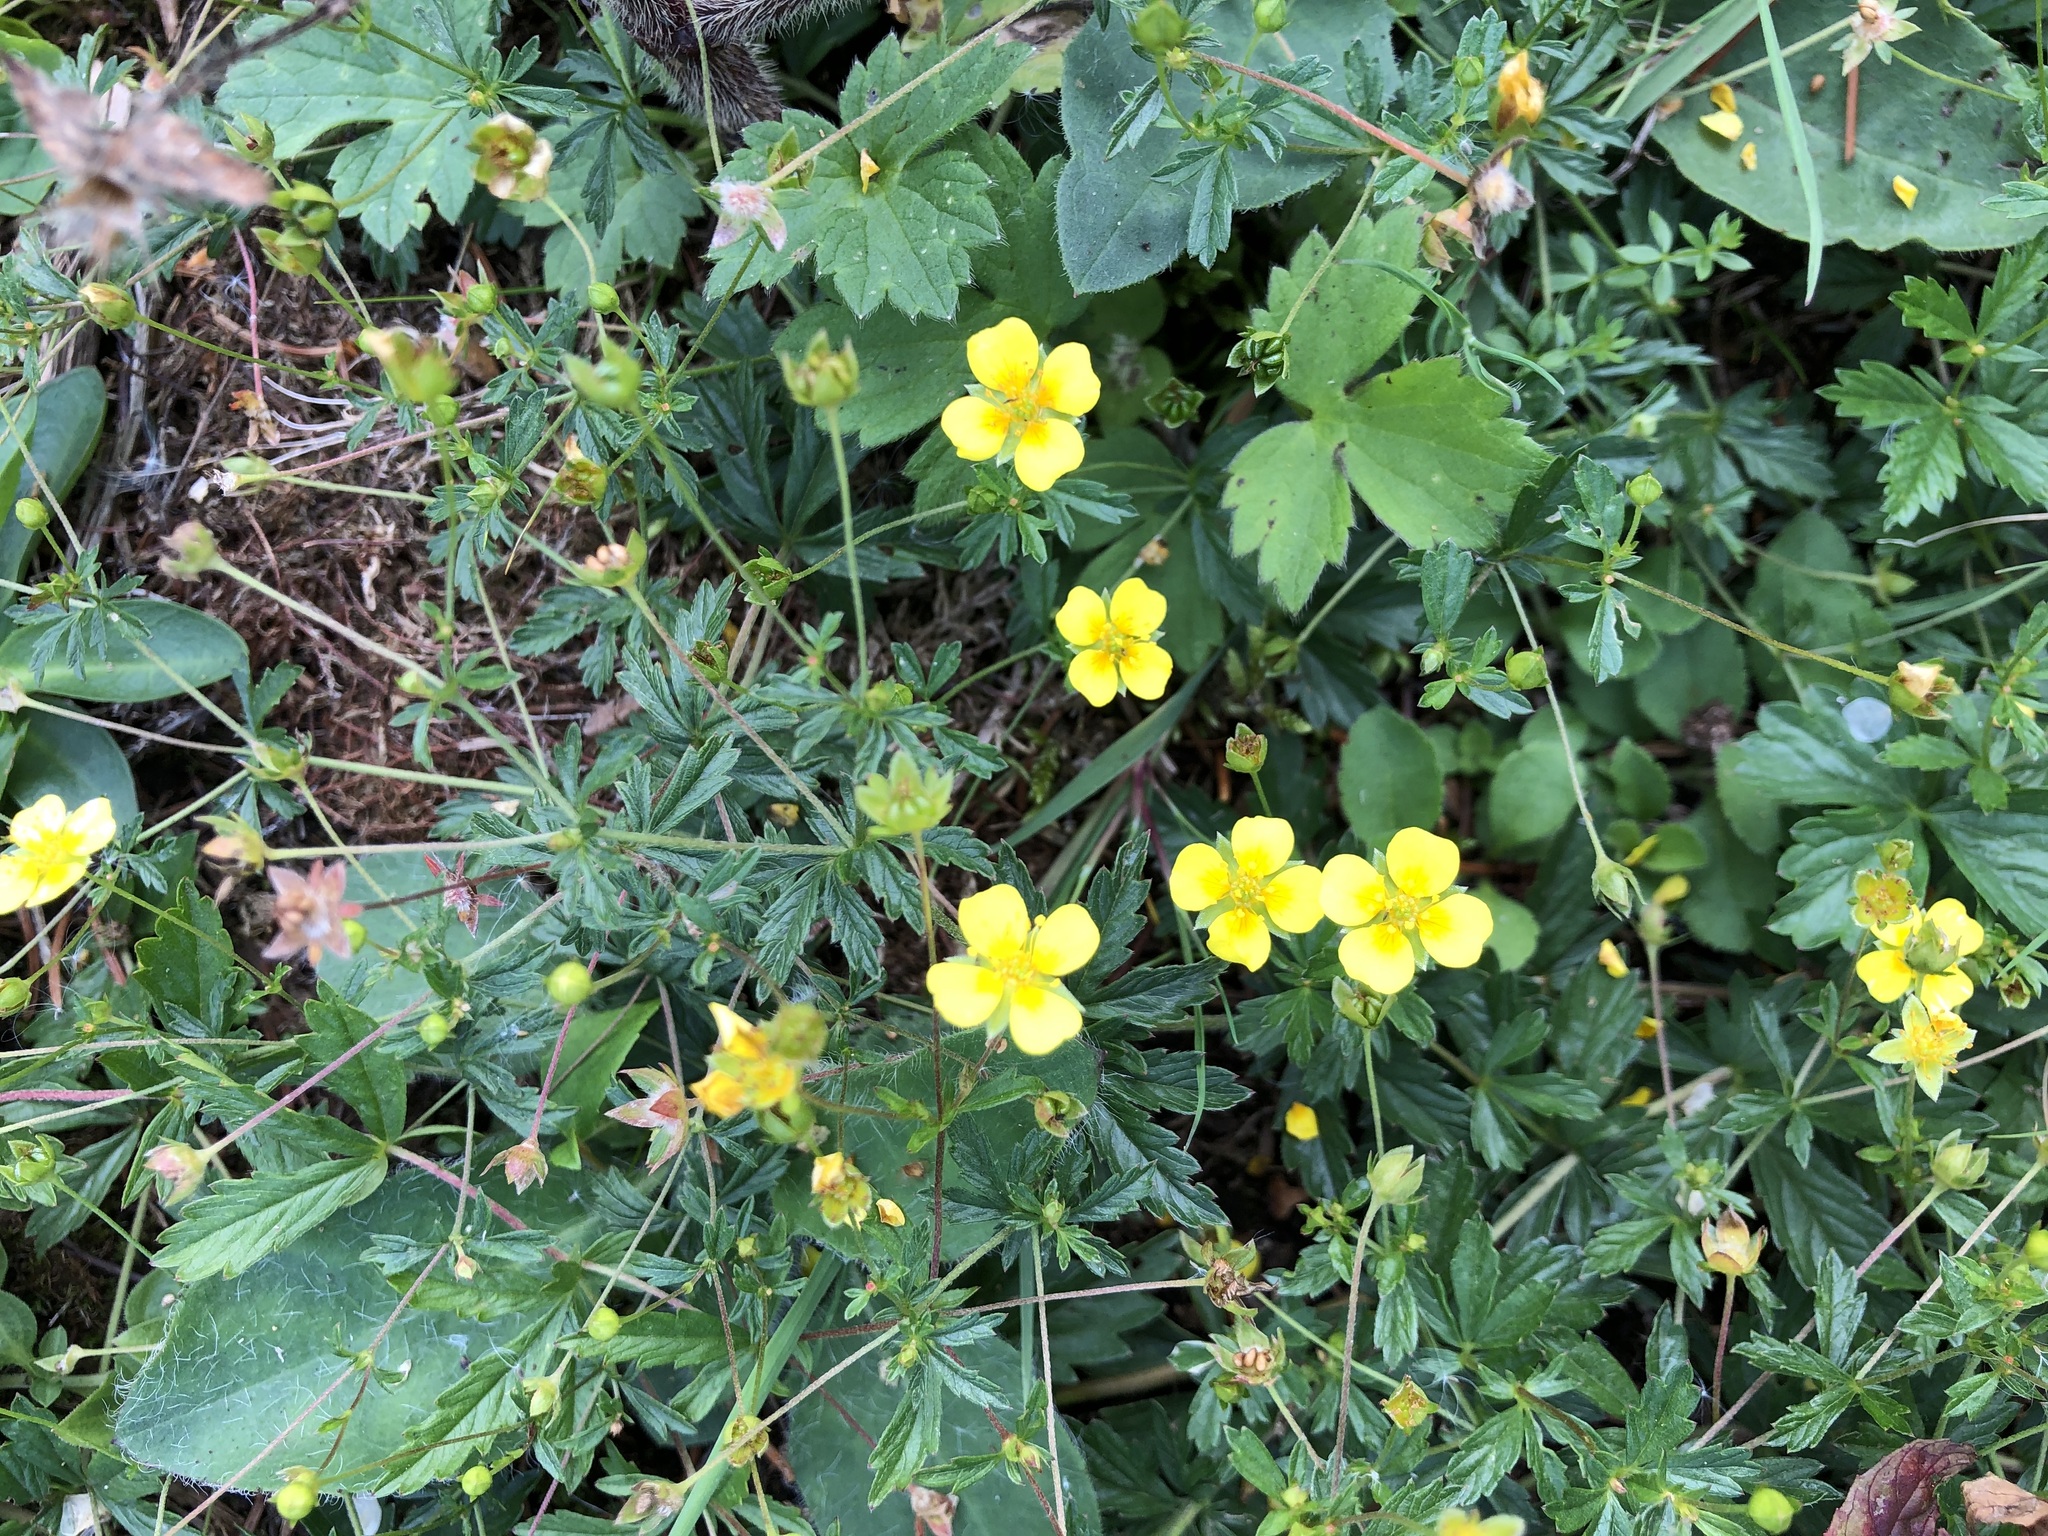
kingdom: Plantae
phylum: Tracheophyta
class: Magnoliopsida
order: Rosales
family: Rosaceae
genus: Potentilla
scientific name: Potentilla erecta
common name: Tormentil
